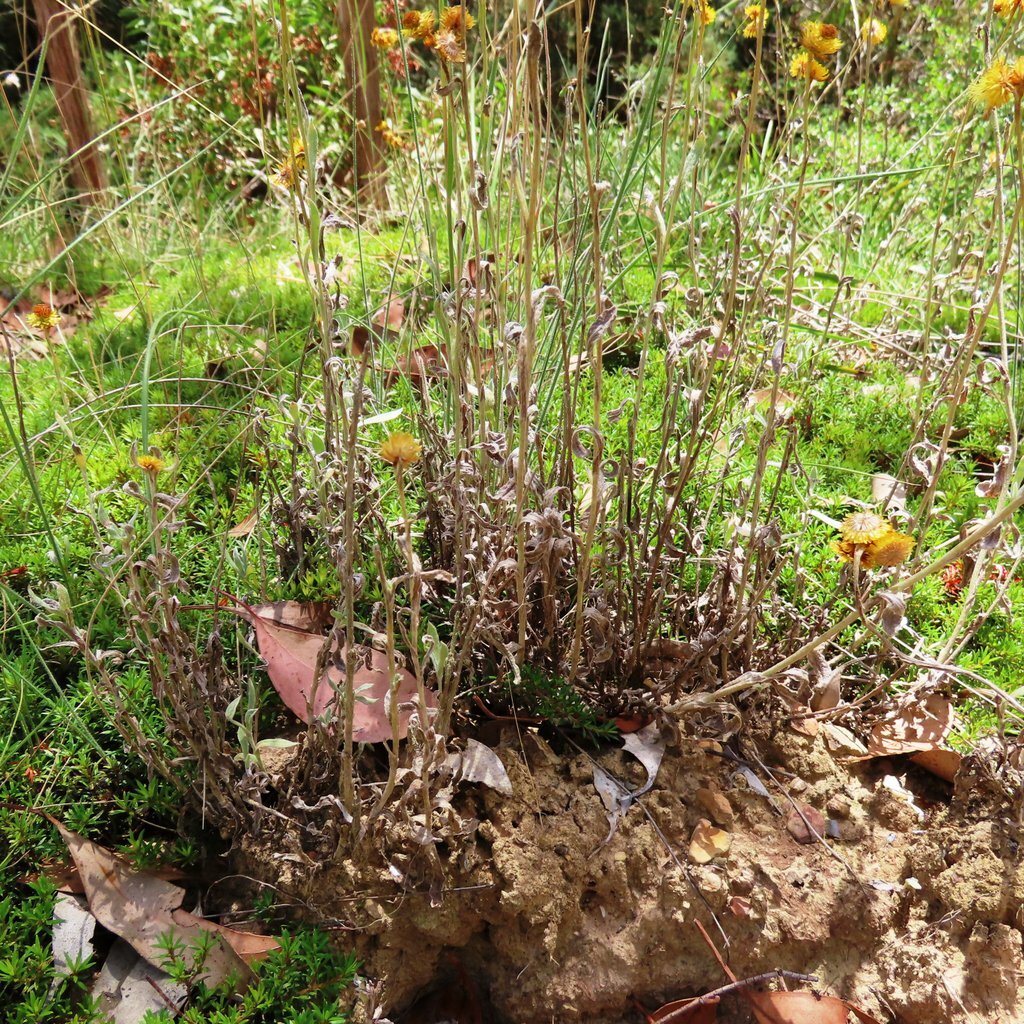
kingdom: Plantae
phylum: Tracheophyta
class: Magnoliopsida
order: Asterales
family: Asteraceae
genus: Chrysocephalum
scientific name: Chrysocephalum apiculatum
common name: Common everlasting
